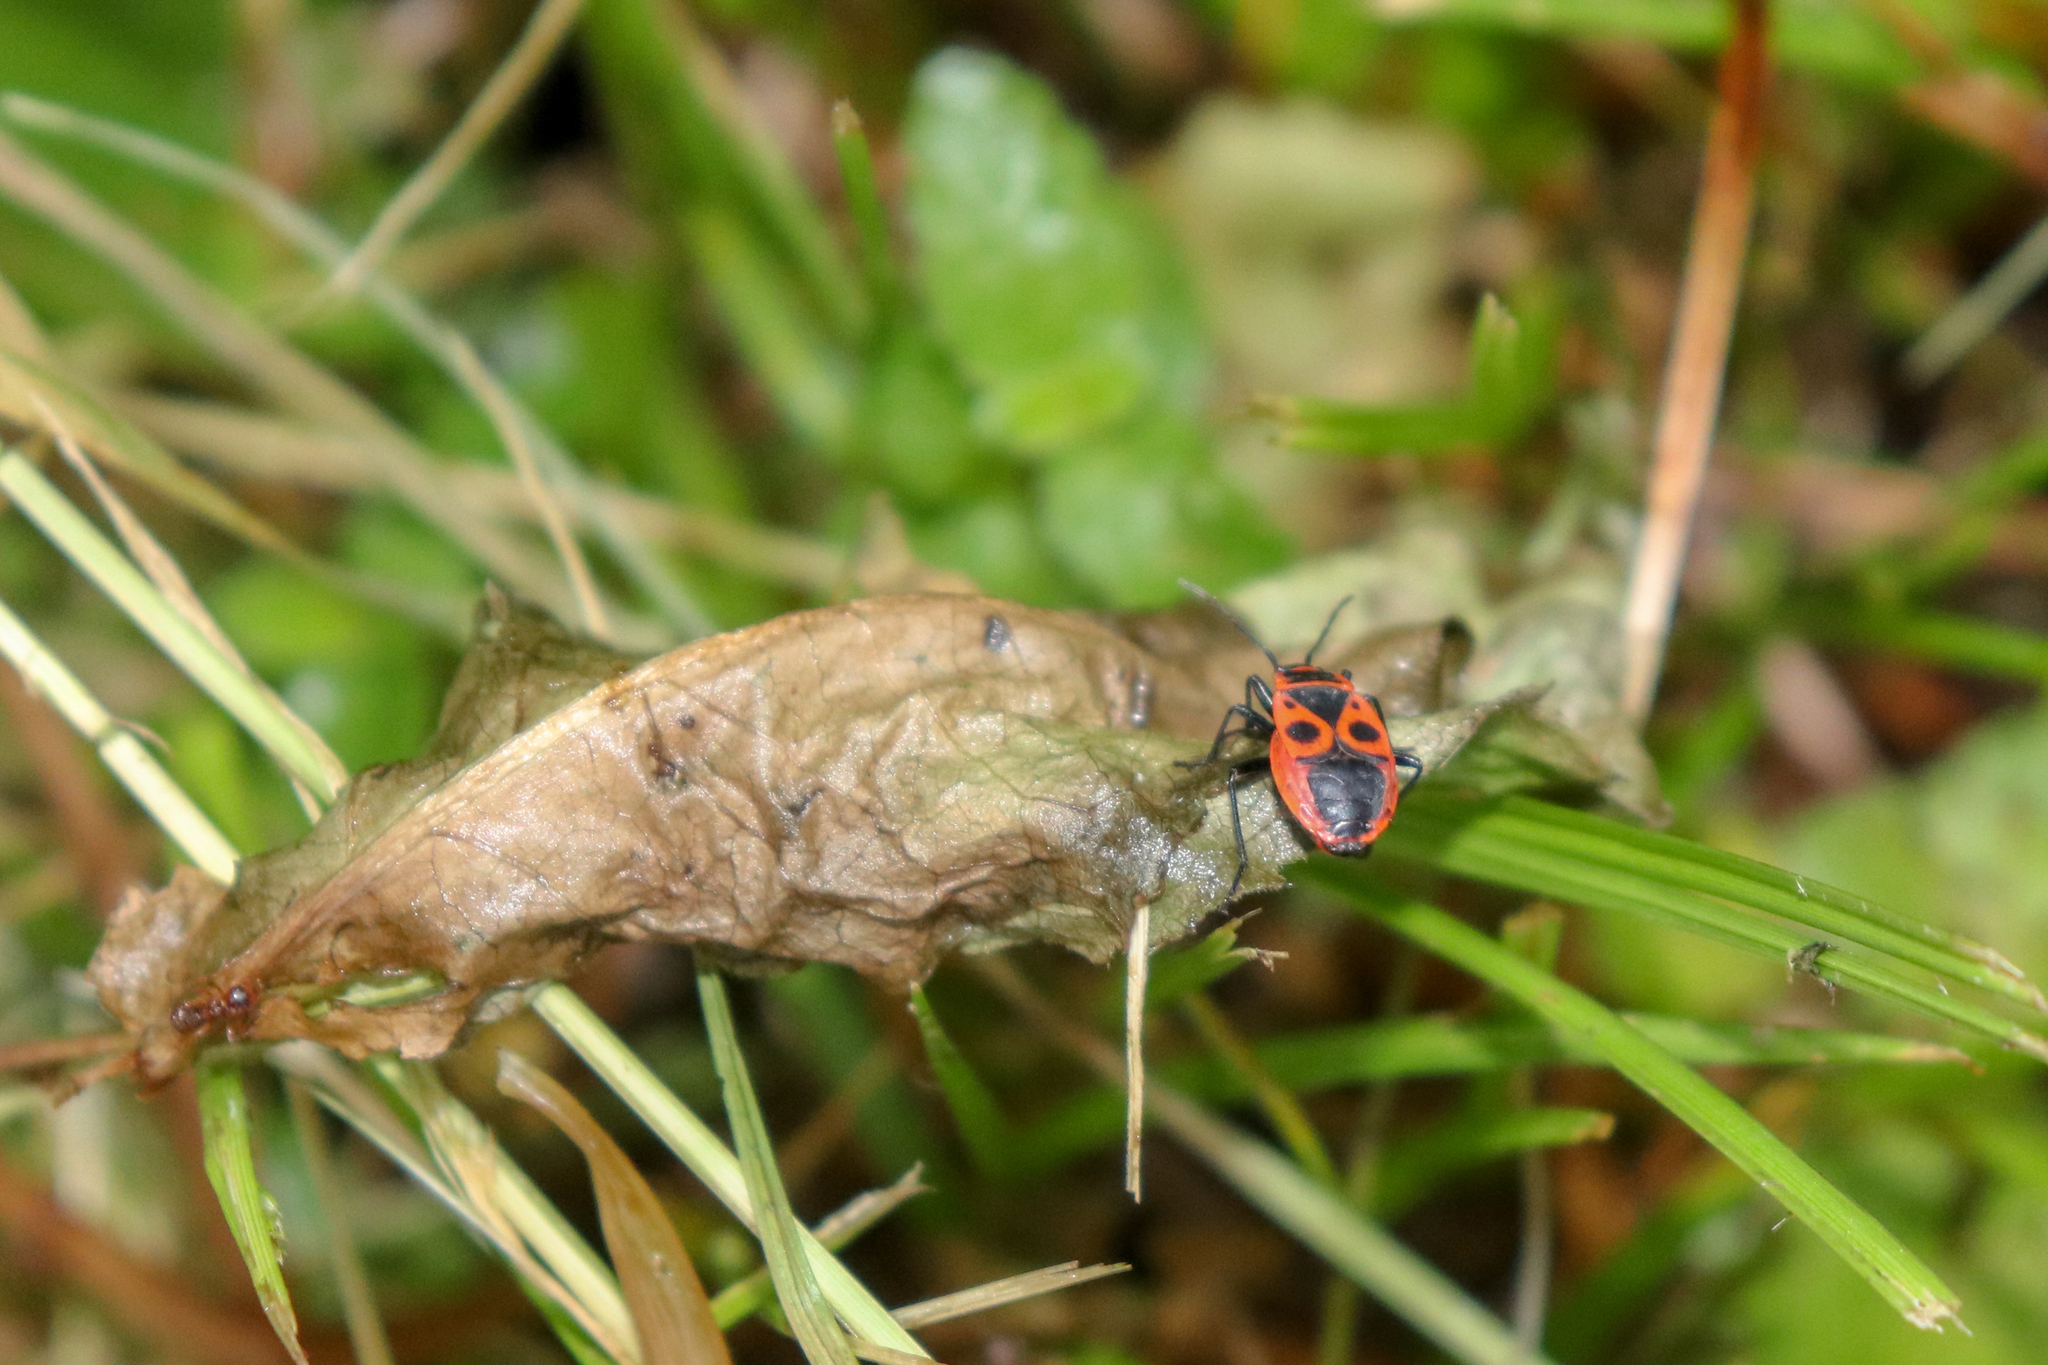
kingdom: Animalia
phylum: Arthropoda
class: Insecta
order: Hemiptera
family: Pyrrhocoridae
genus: Pyrrhocoris
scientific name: Pyrrhocoris apterus
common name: Firebug
